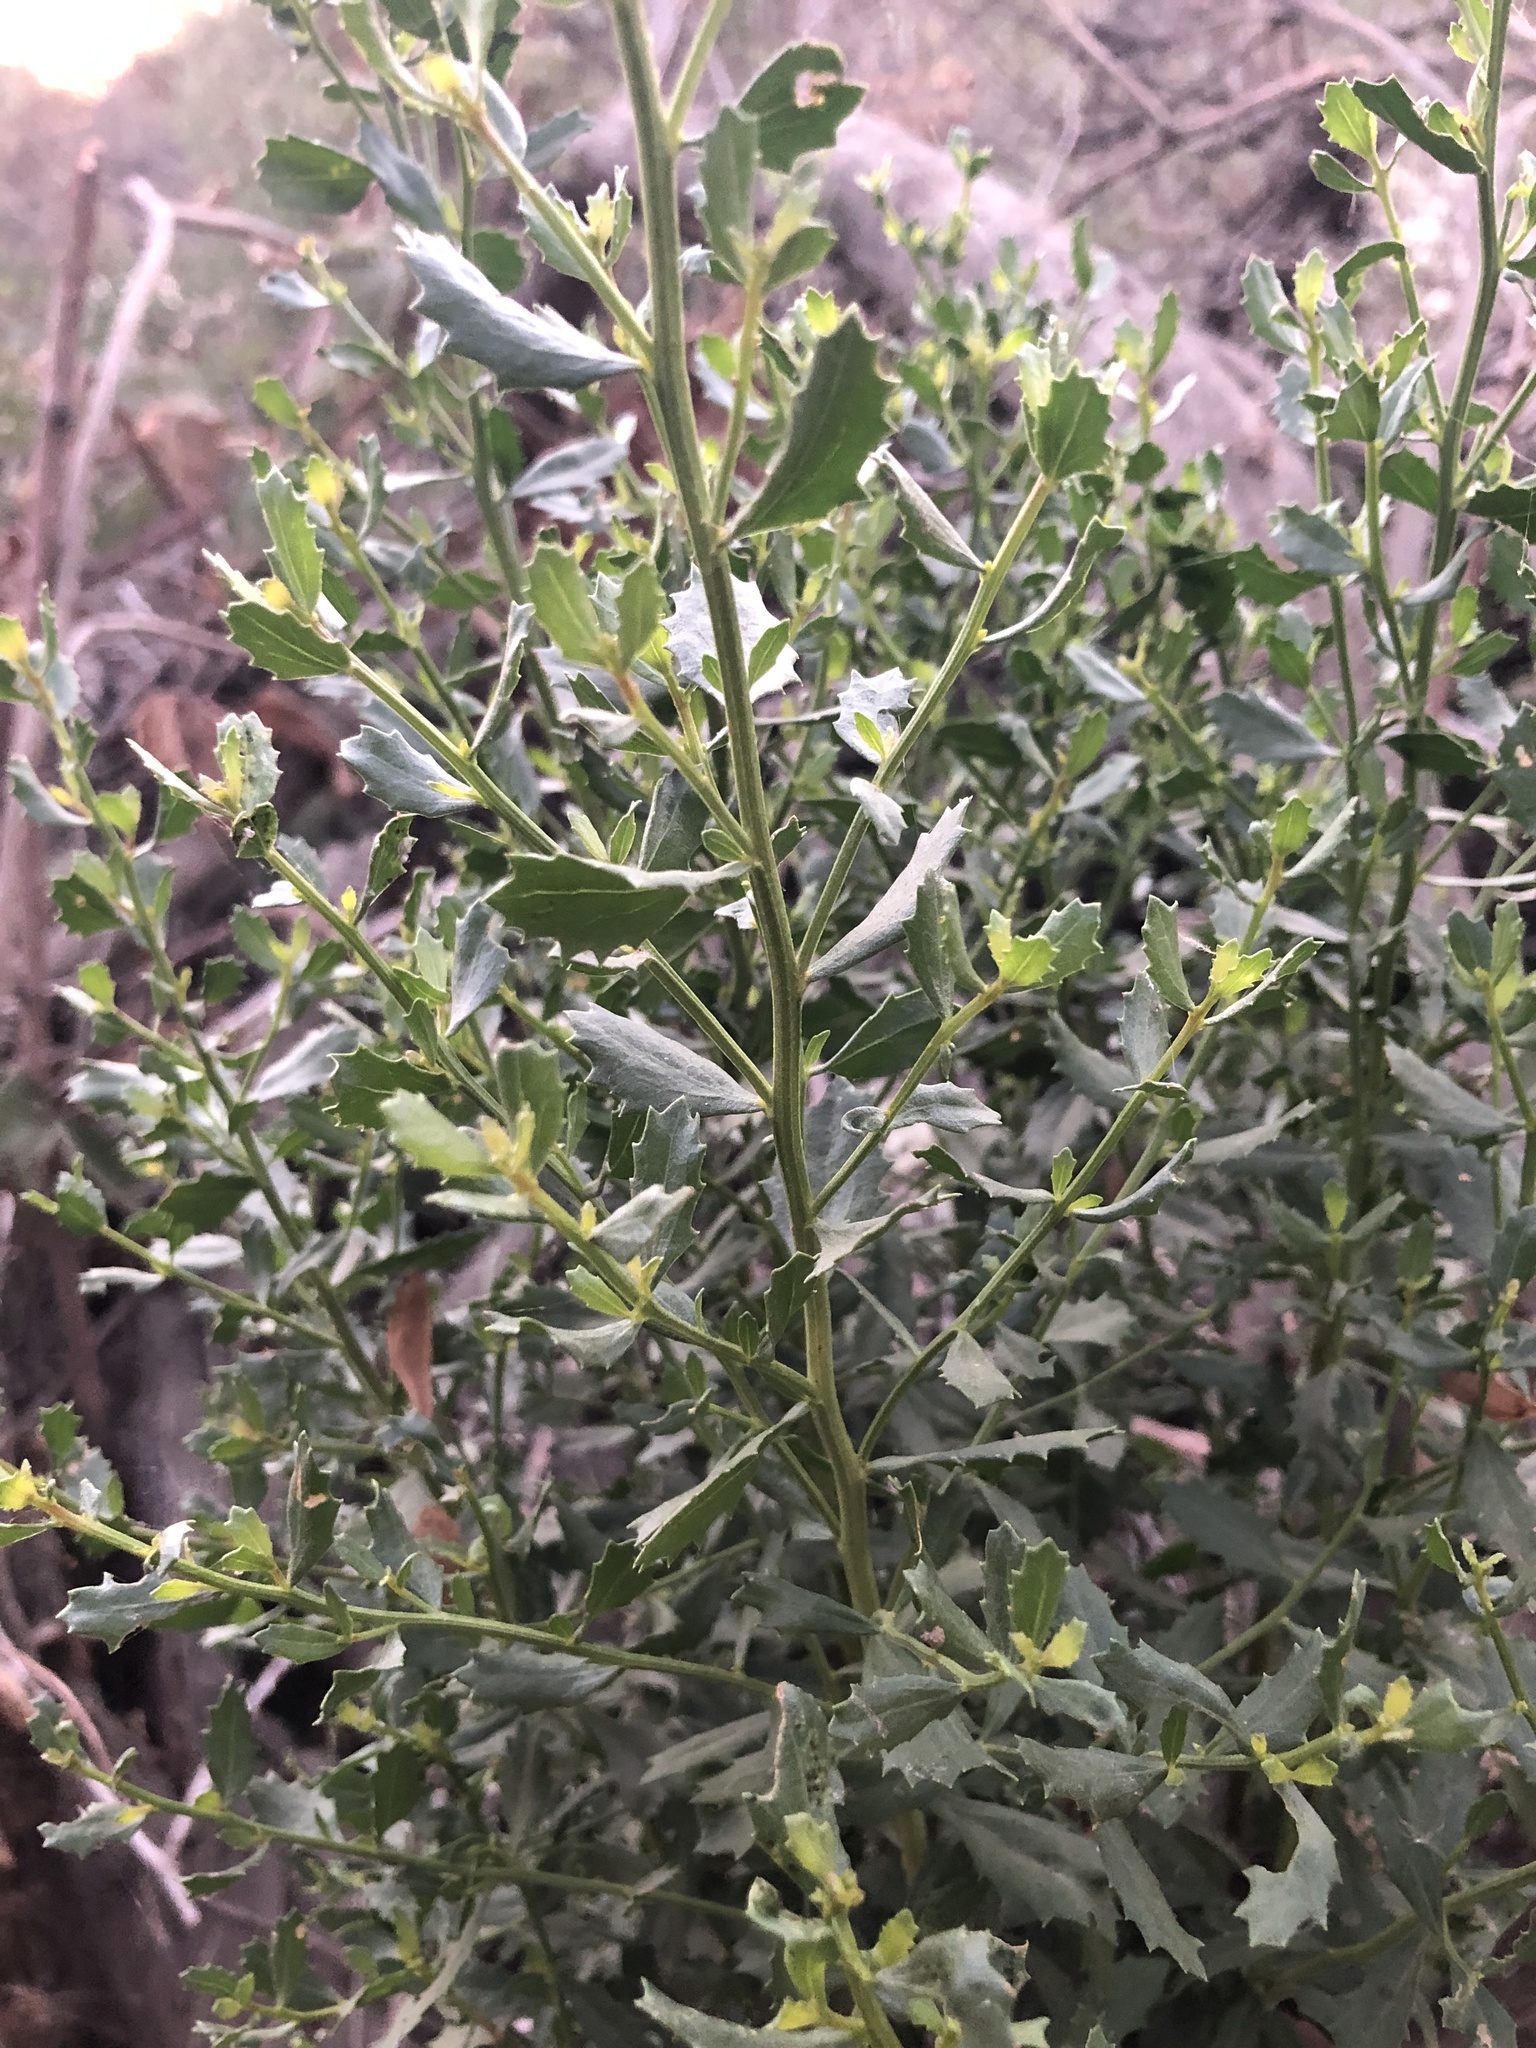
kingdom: Plantae
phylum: Tracheophyta
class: Magnoliopsida
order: Asterales
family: Asteraceae
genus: Baccharis
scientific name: Baccharis pilularis
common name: Coyotebrush
